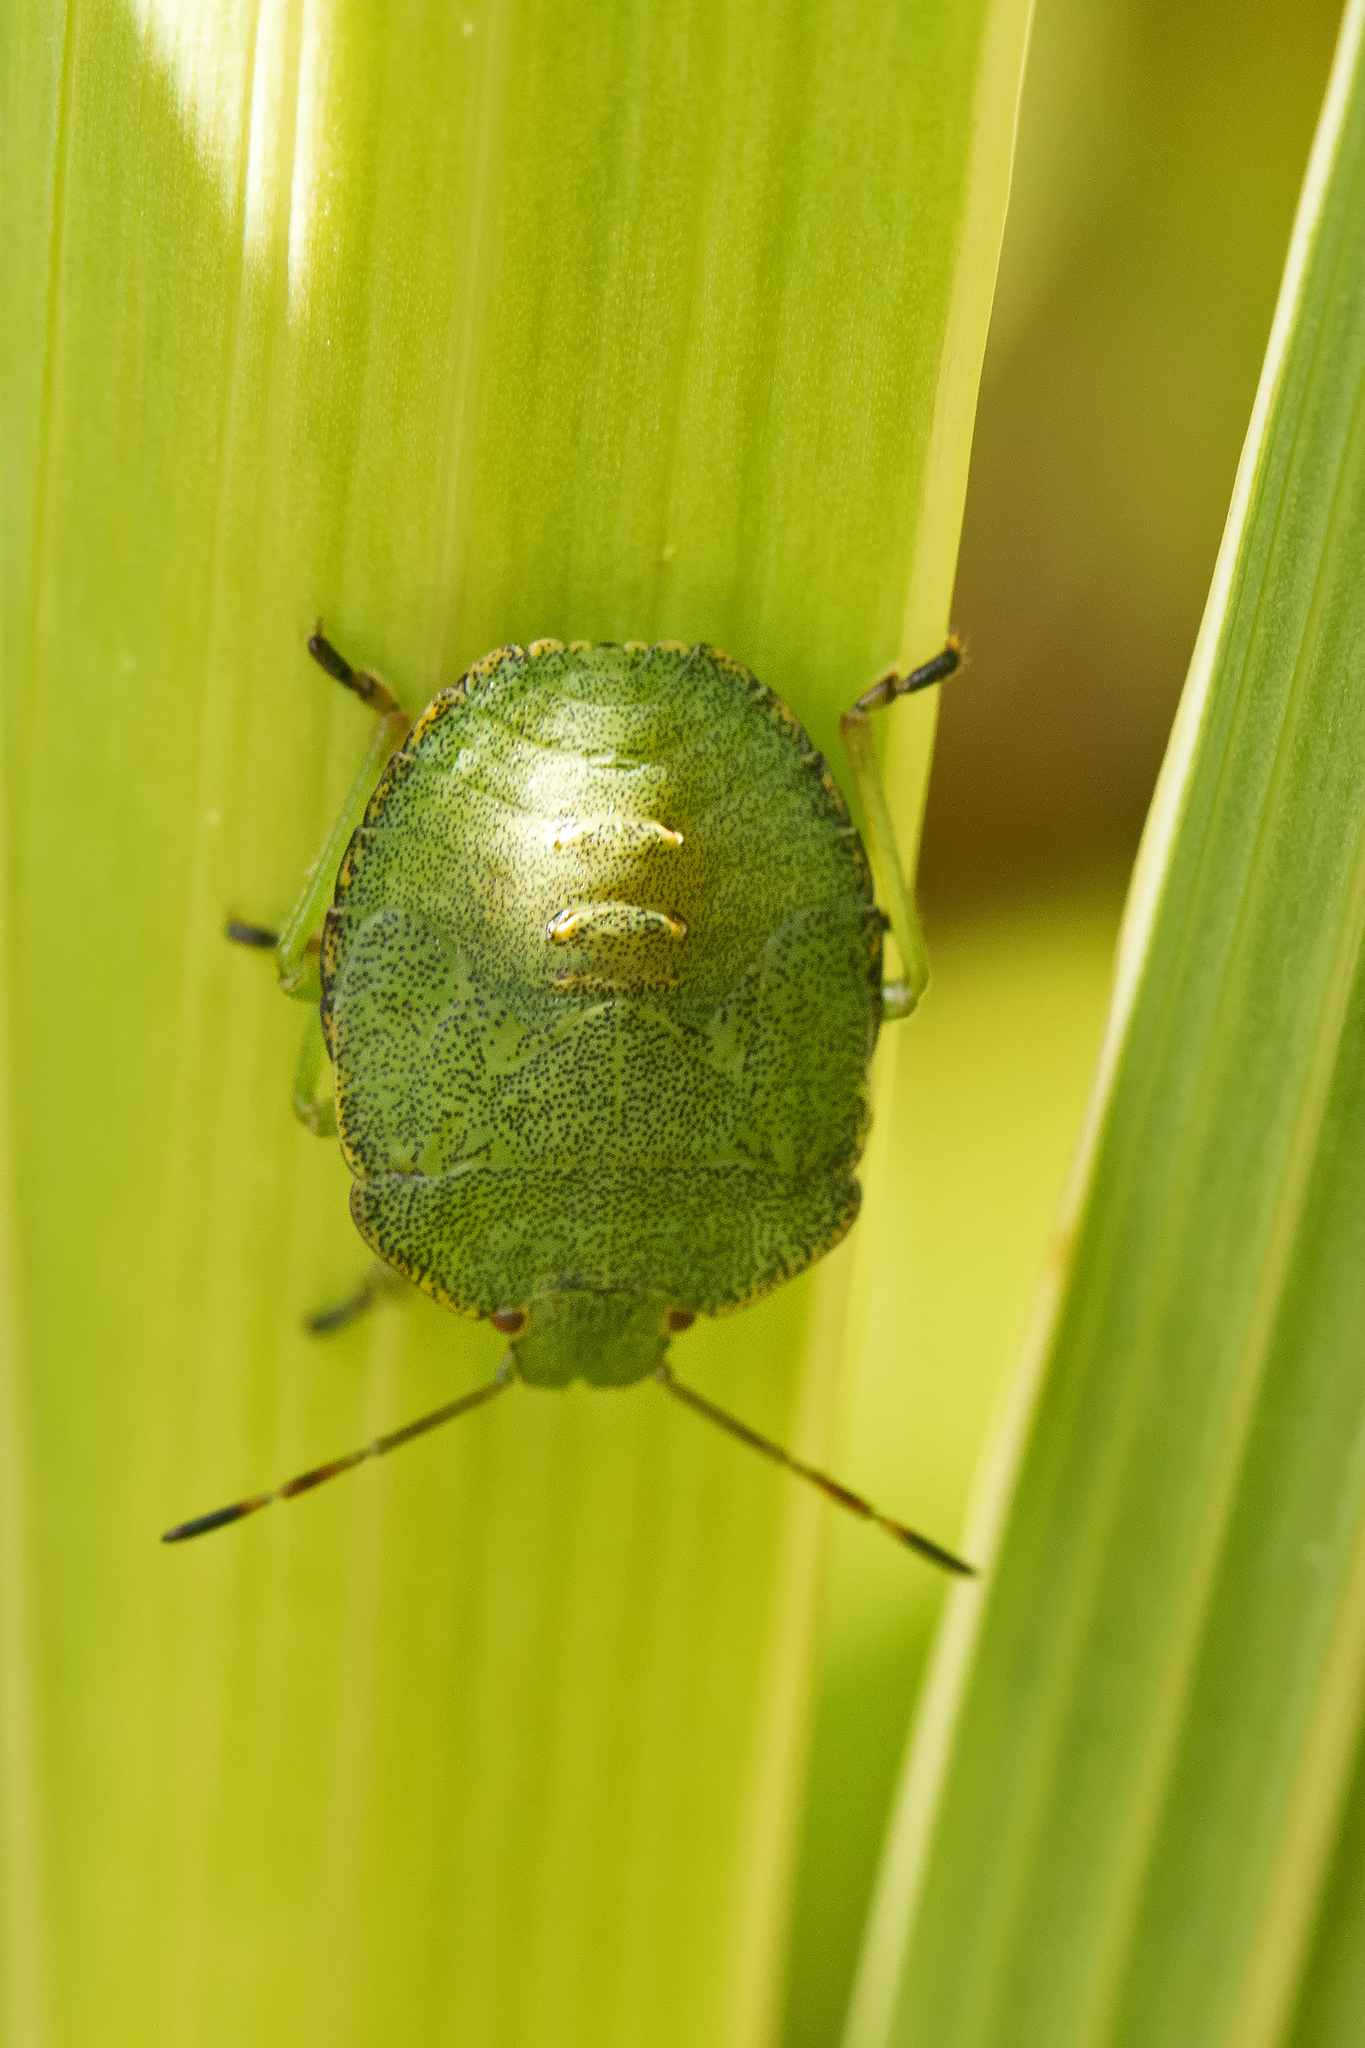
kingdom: Animalia
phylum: Arthropoda
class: Insecta
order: Hemiptera
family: Pentatomidae
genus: Palomena
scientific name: Palomena prasina
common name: Green shieldbug
